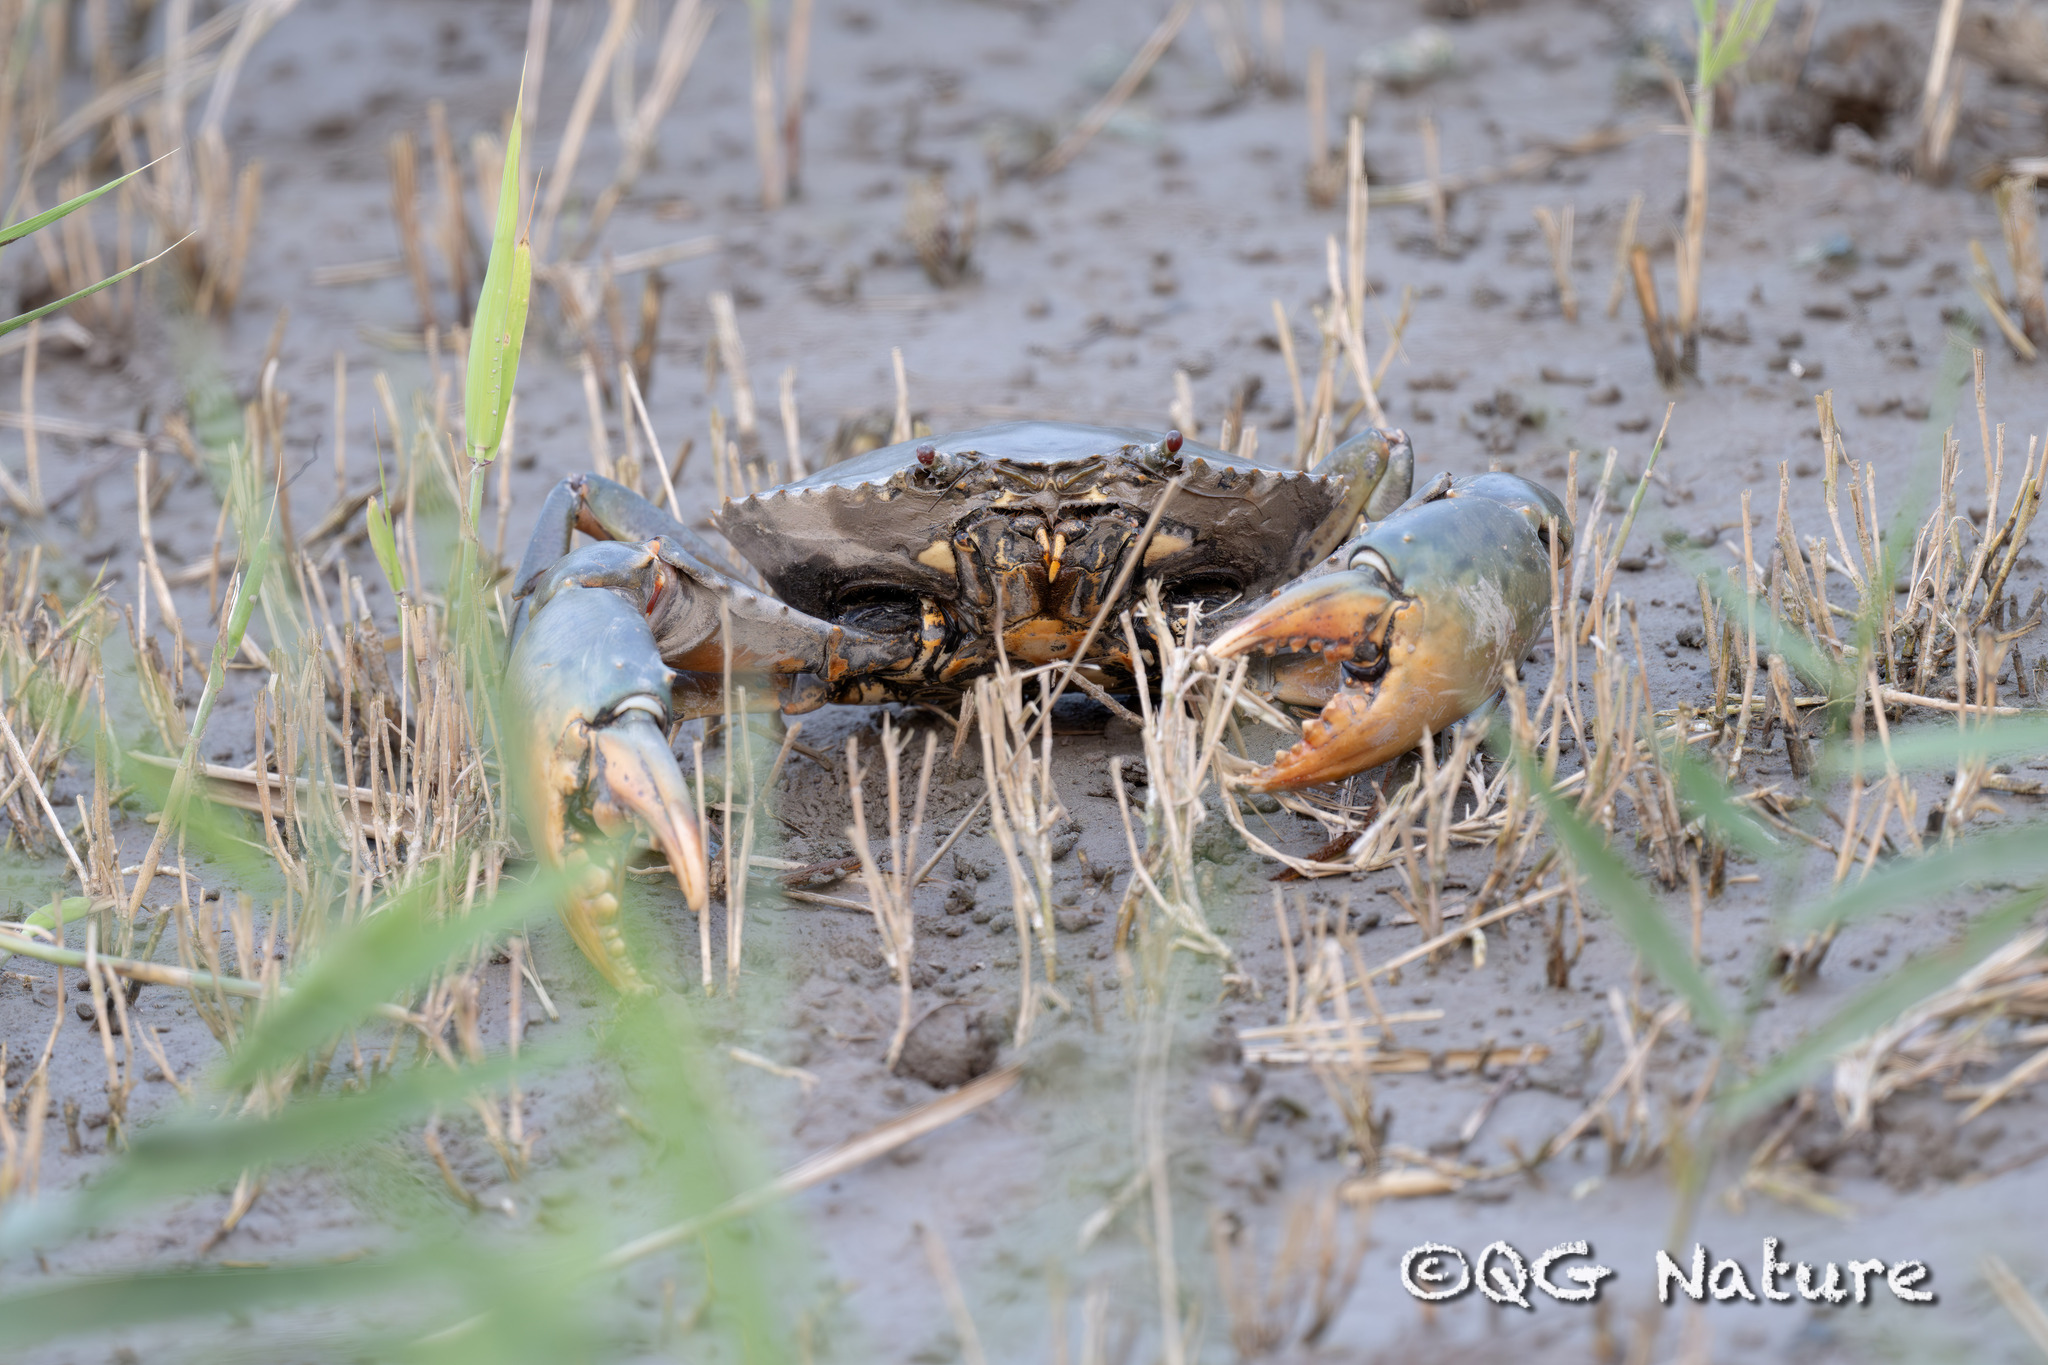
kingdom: Animalia
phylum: Arthropoda
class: Malacostraca
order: Decapoda
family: Portunidae
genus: Scylla
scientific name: Scylla paramamosain
